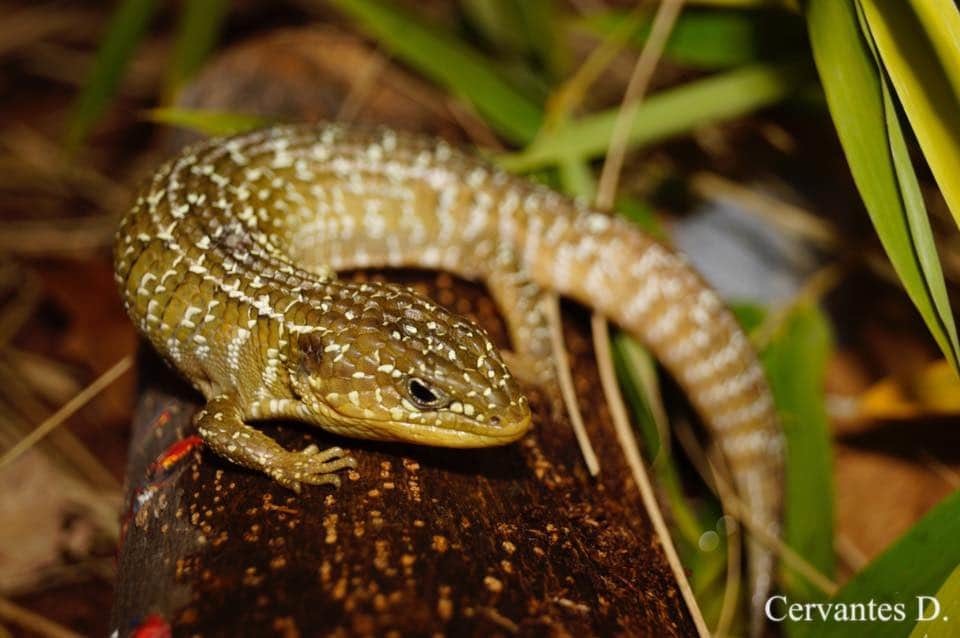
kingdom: Animalia
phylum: Chordata
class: Squamata
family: Anguidae
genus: Barisia
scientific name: Barisia imbricata
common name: Imbricate alligator lizard
